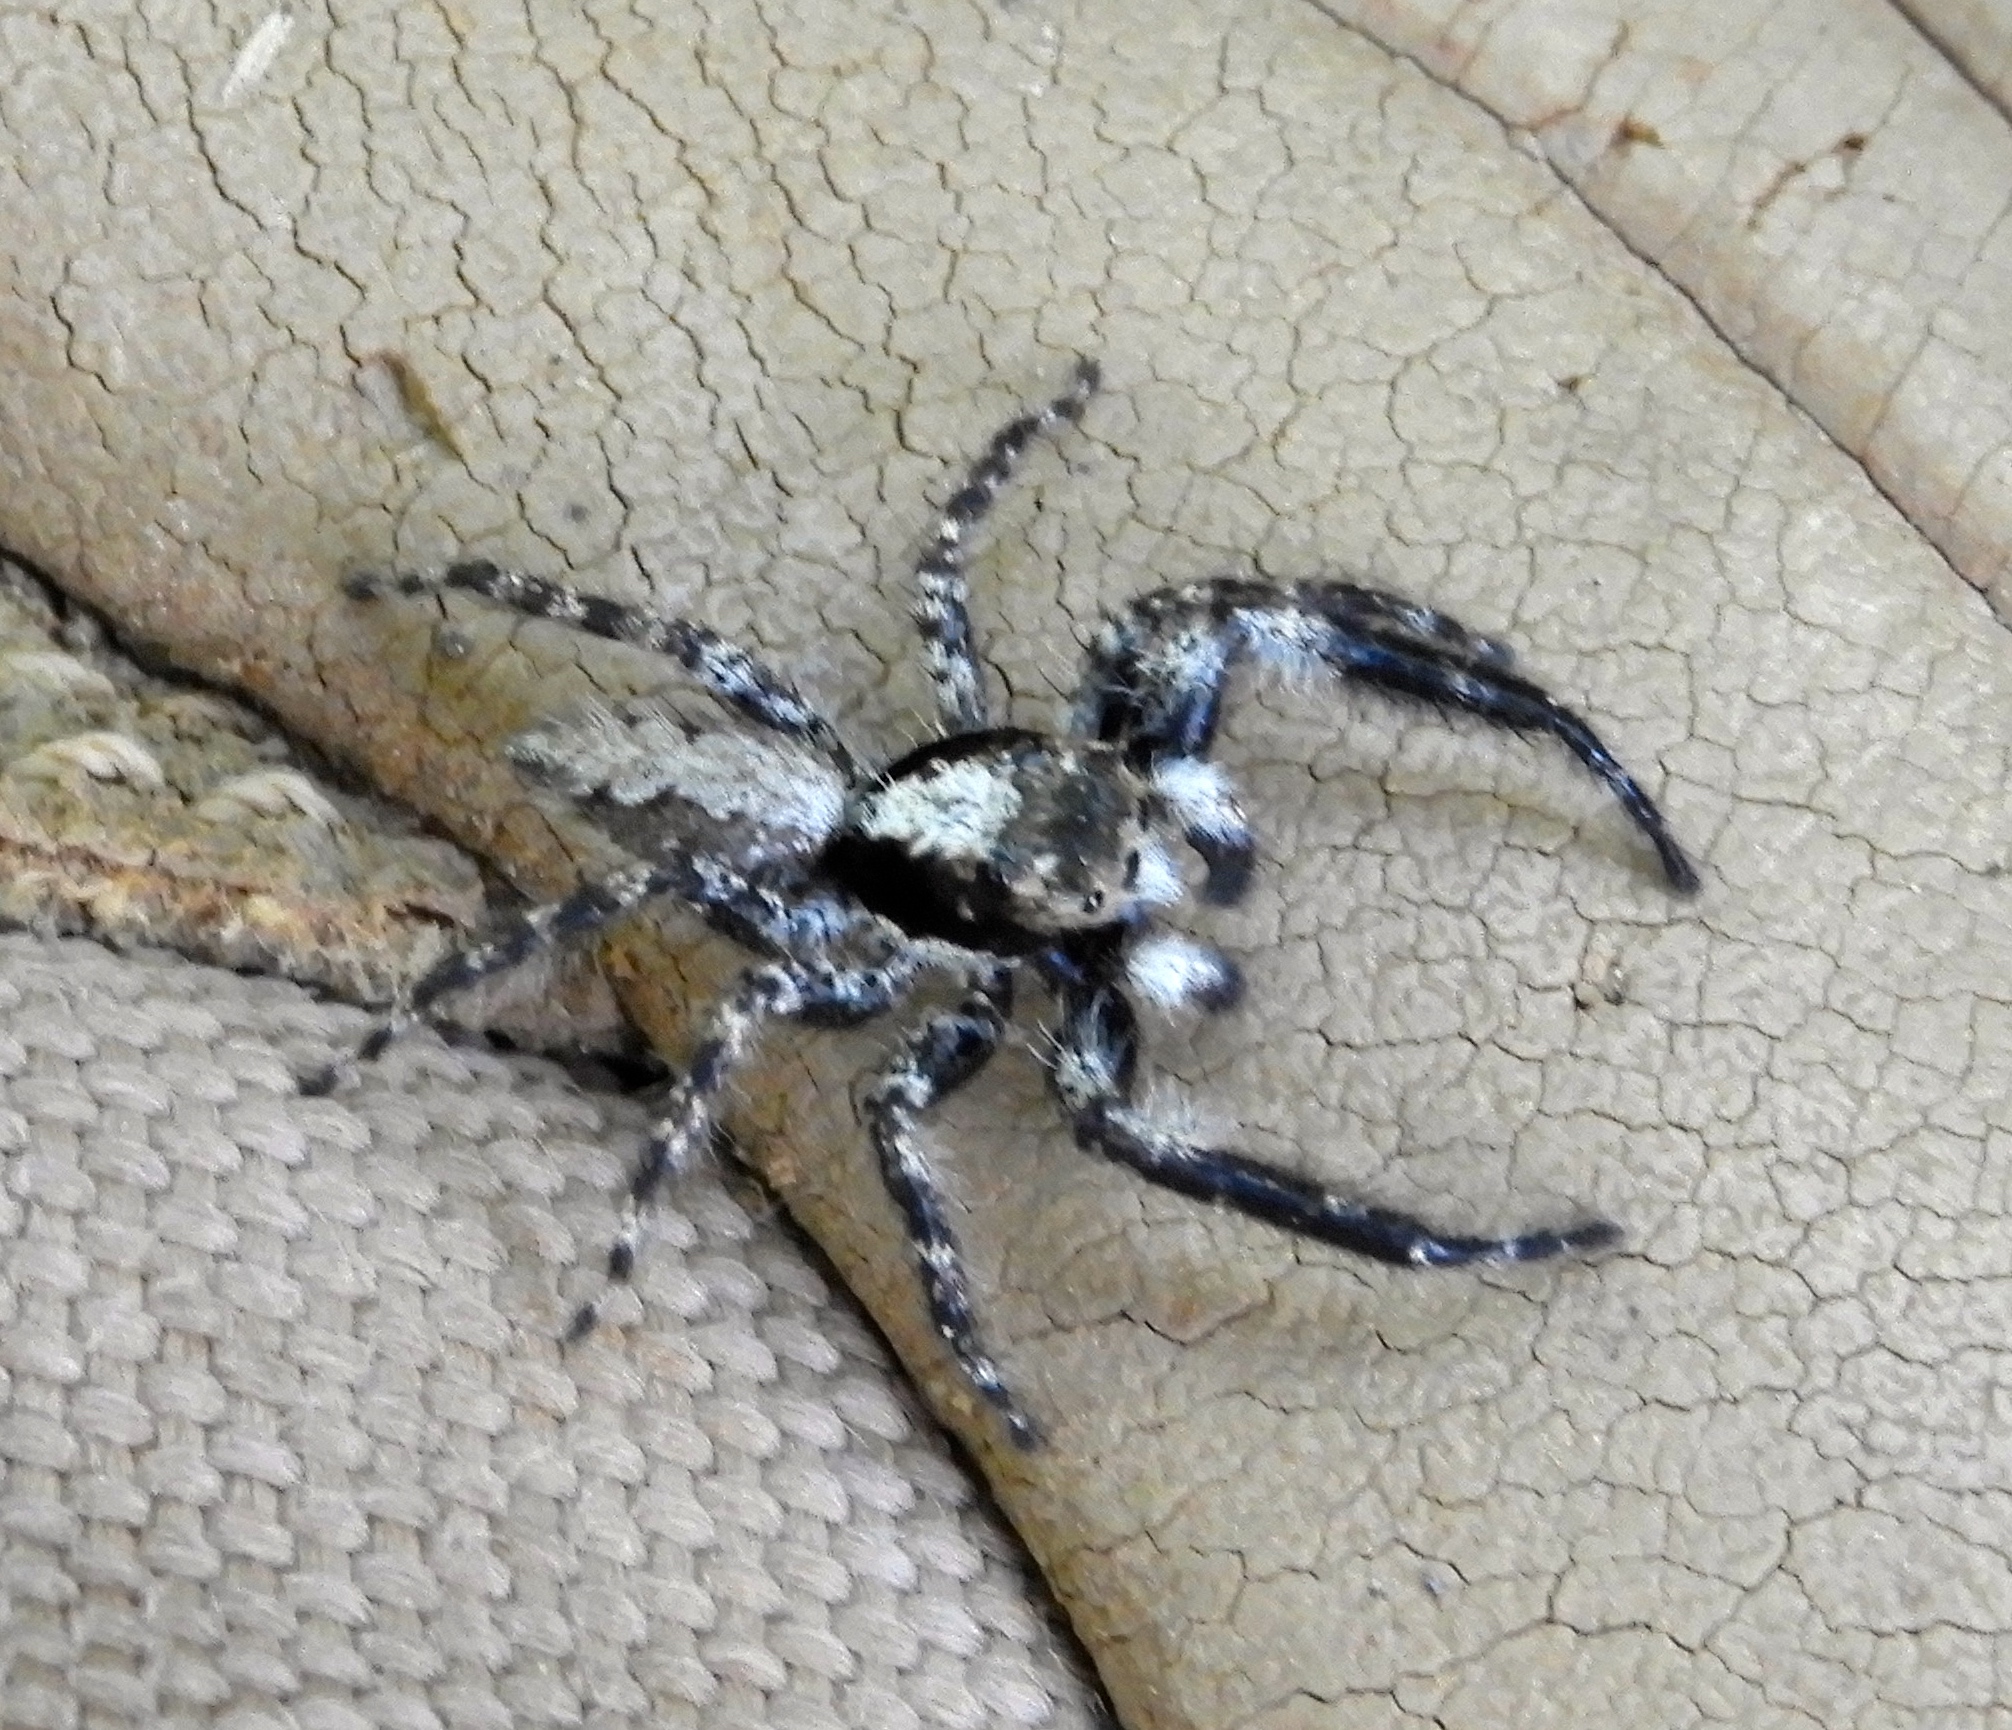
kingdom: Animalia
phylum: Arthropoda
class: Arachnida
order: Araneae
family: Salticidae
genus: Balmaceda
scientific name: Balmaceda
